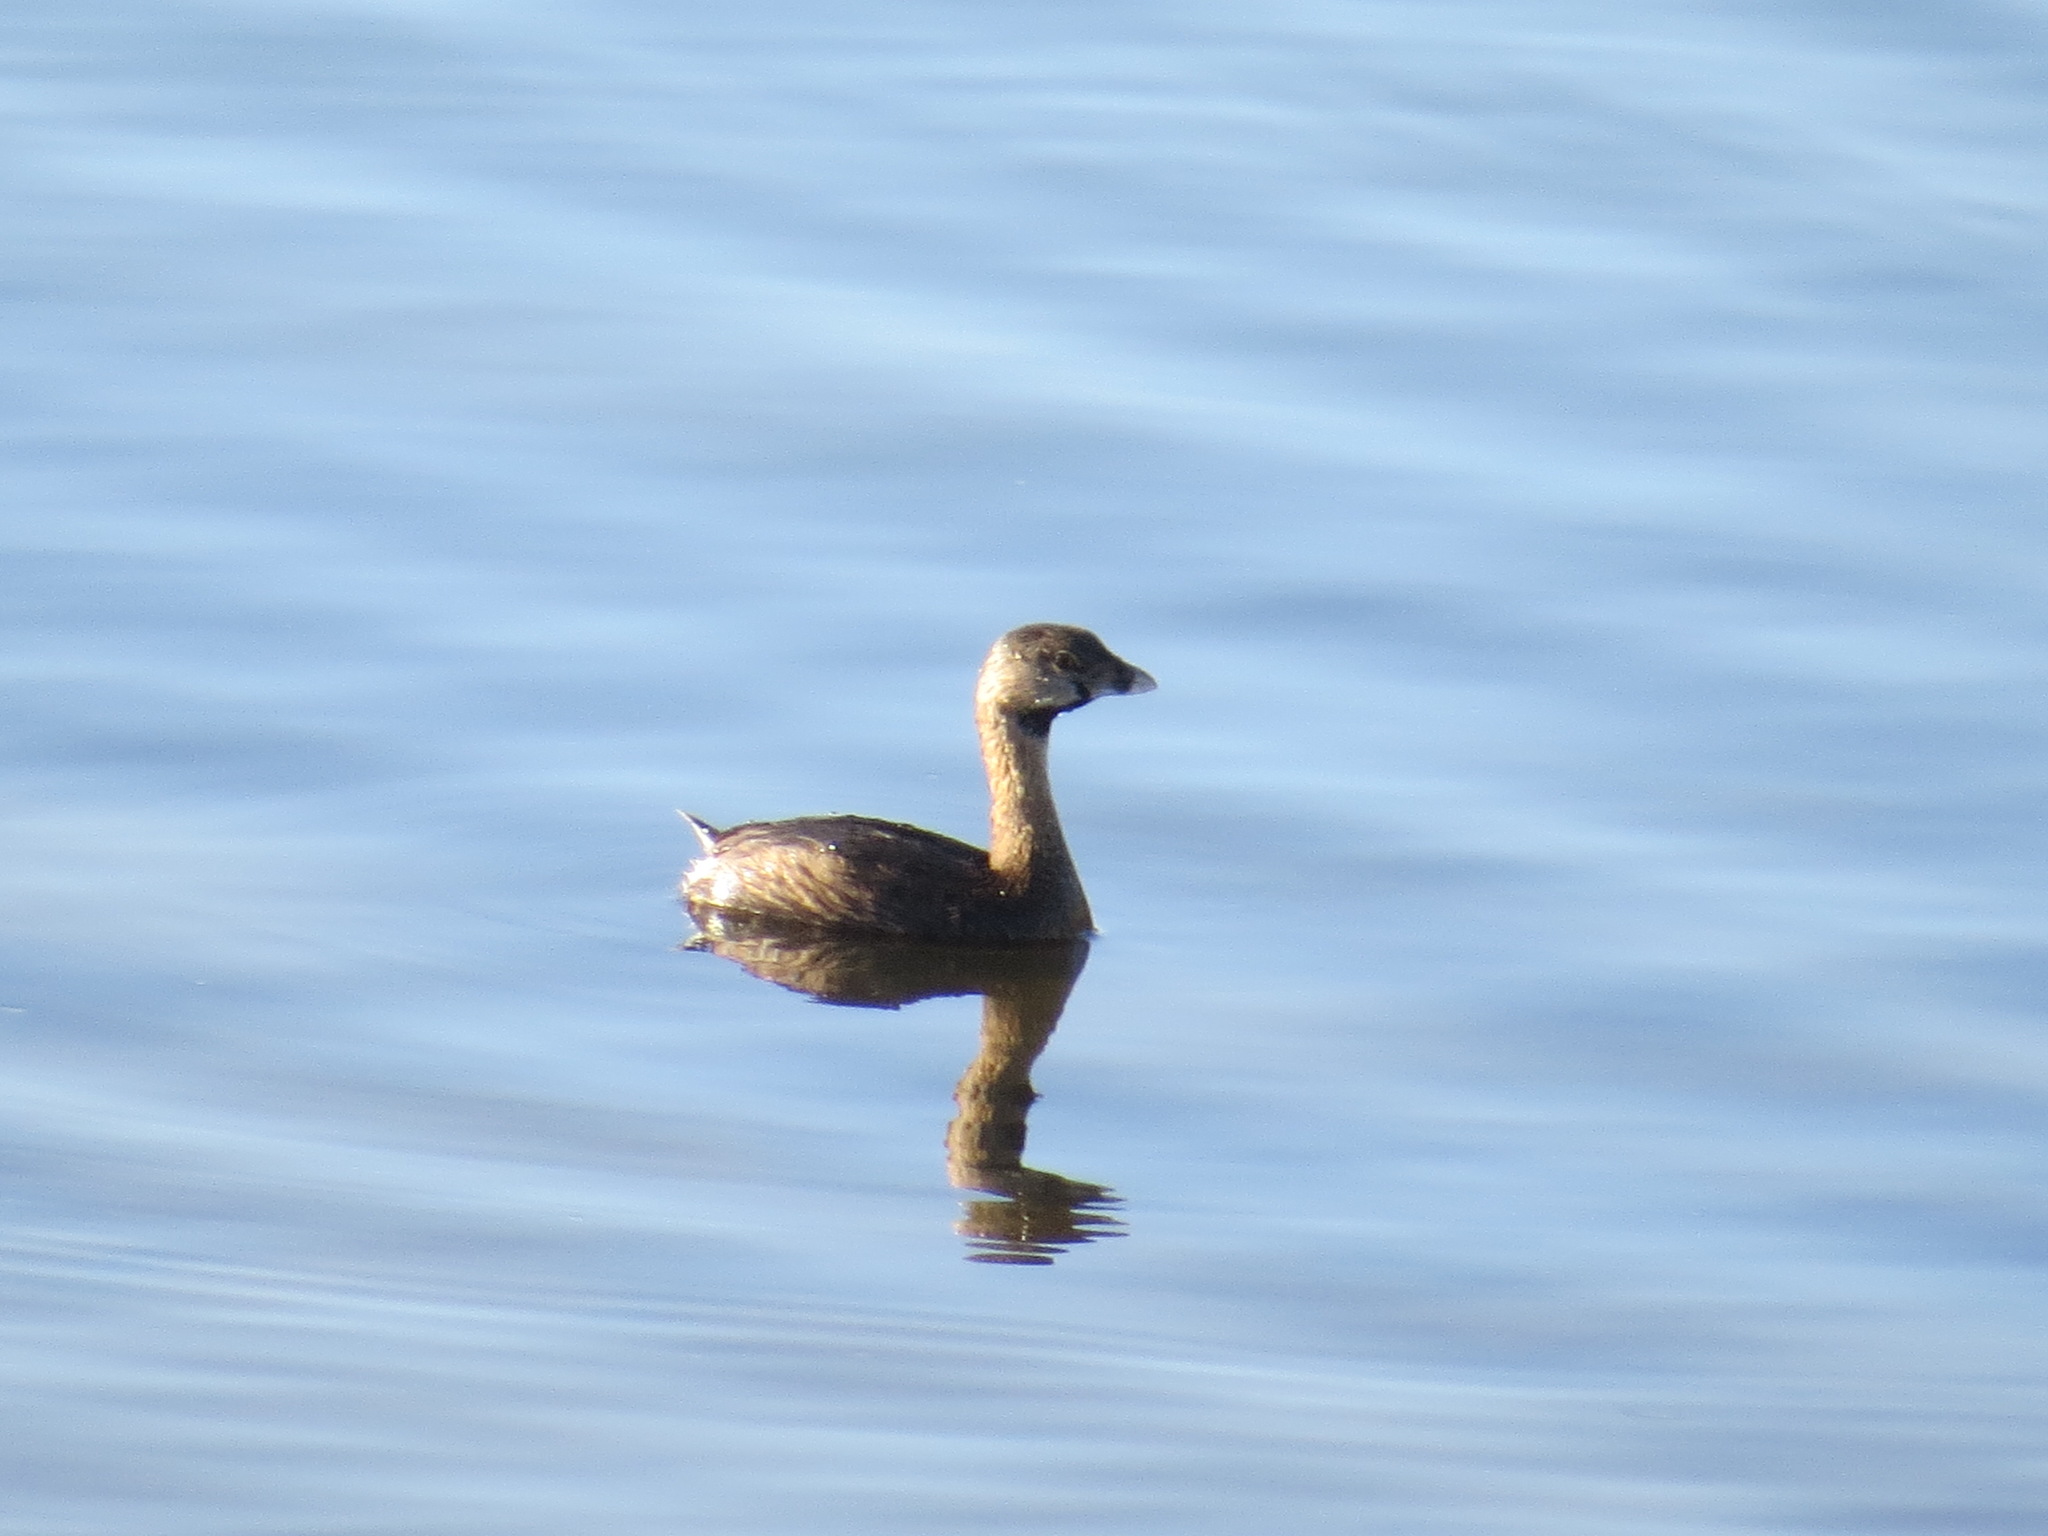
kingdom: Animalia
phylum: Chordata
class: Aves
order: Podicipediformes
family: Podicipedidae
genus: Podilymbus
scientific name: Podilymbus podiceps
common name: Pied-billed grebe
